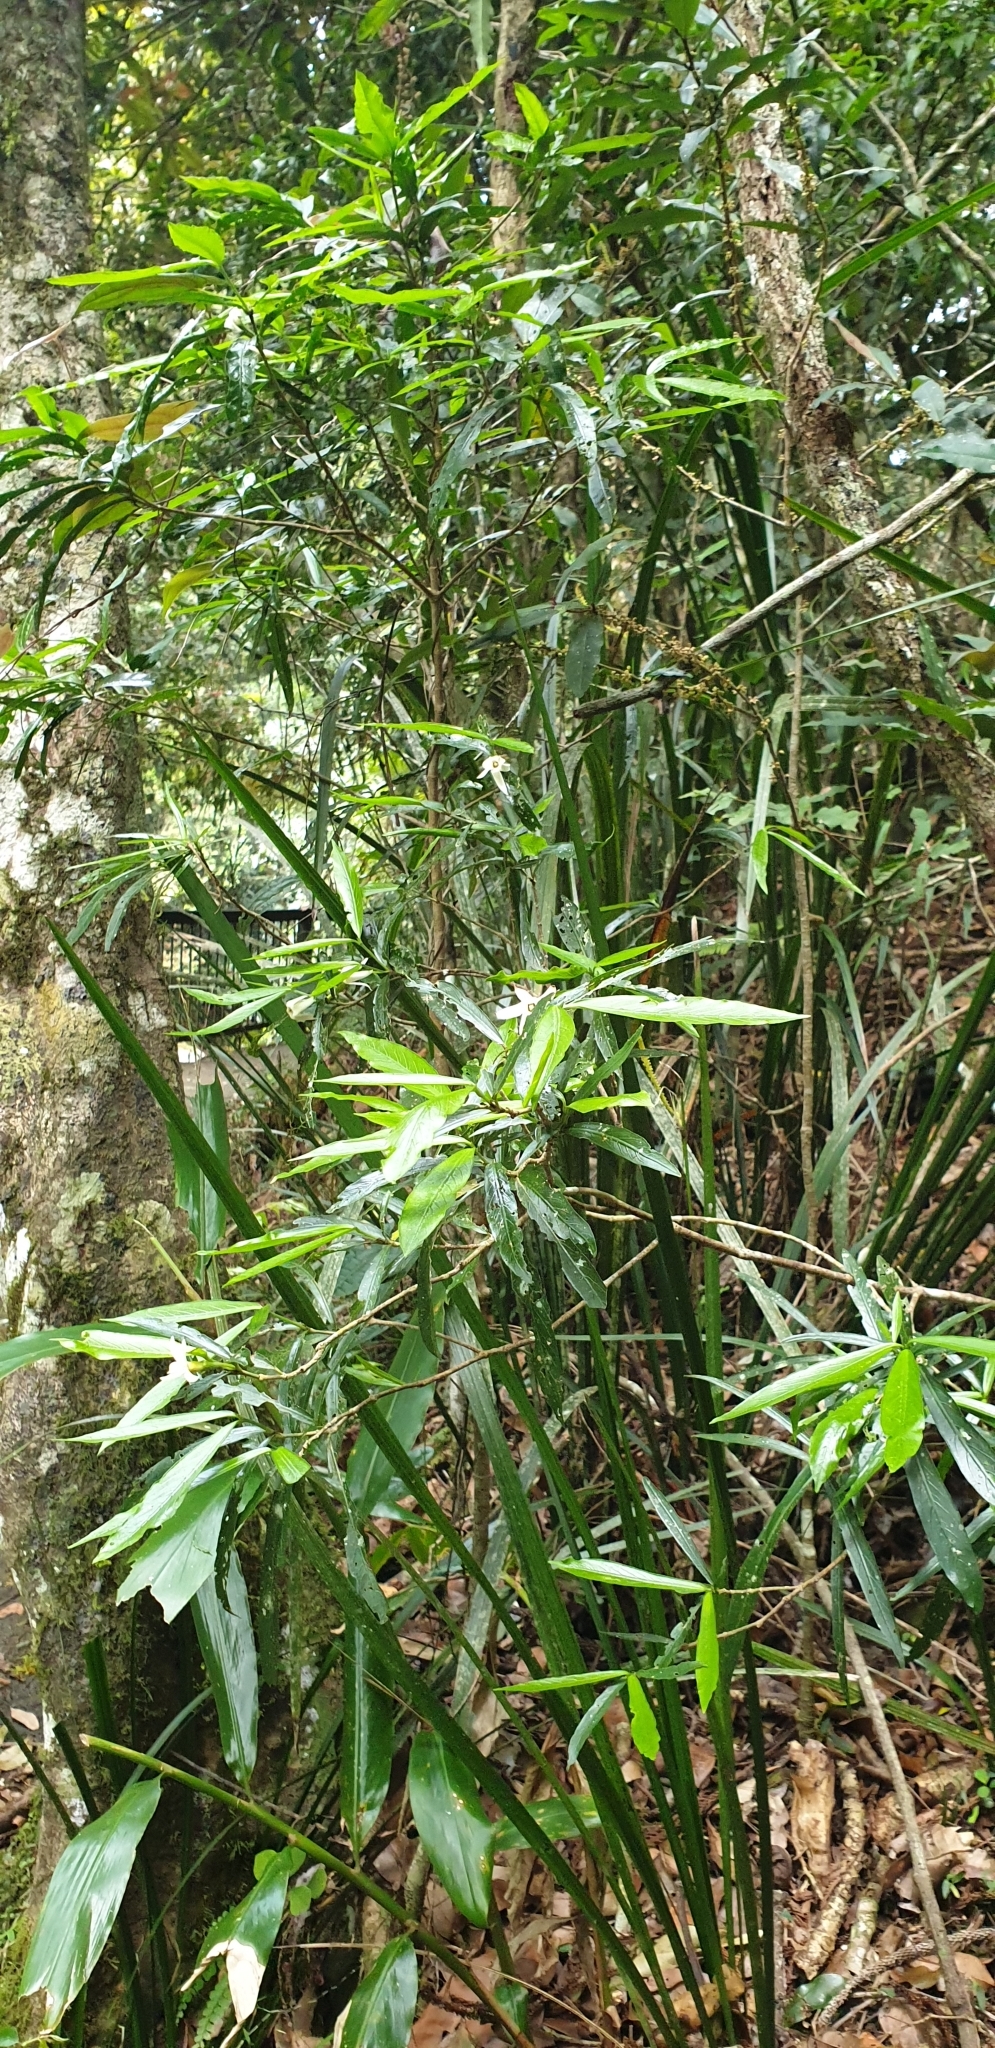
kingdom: Plantae
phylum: Tracheophyta
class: Magnoliopsida
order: Gentianales
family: Rubiaceae
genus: Atractocarpus
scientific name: Atractocarpus chartaceus
